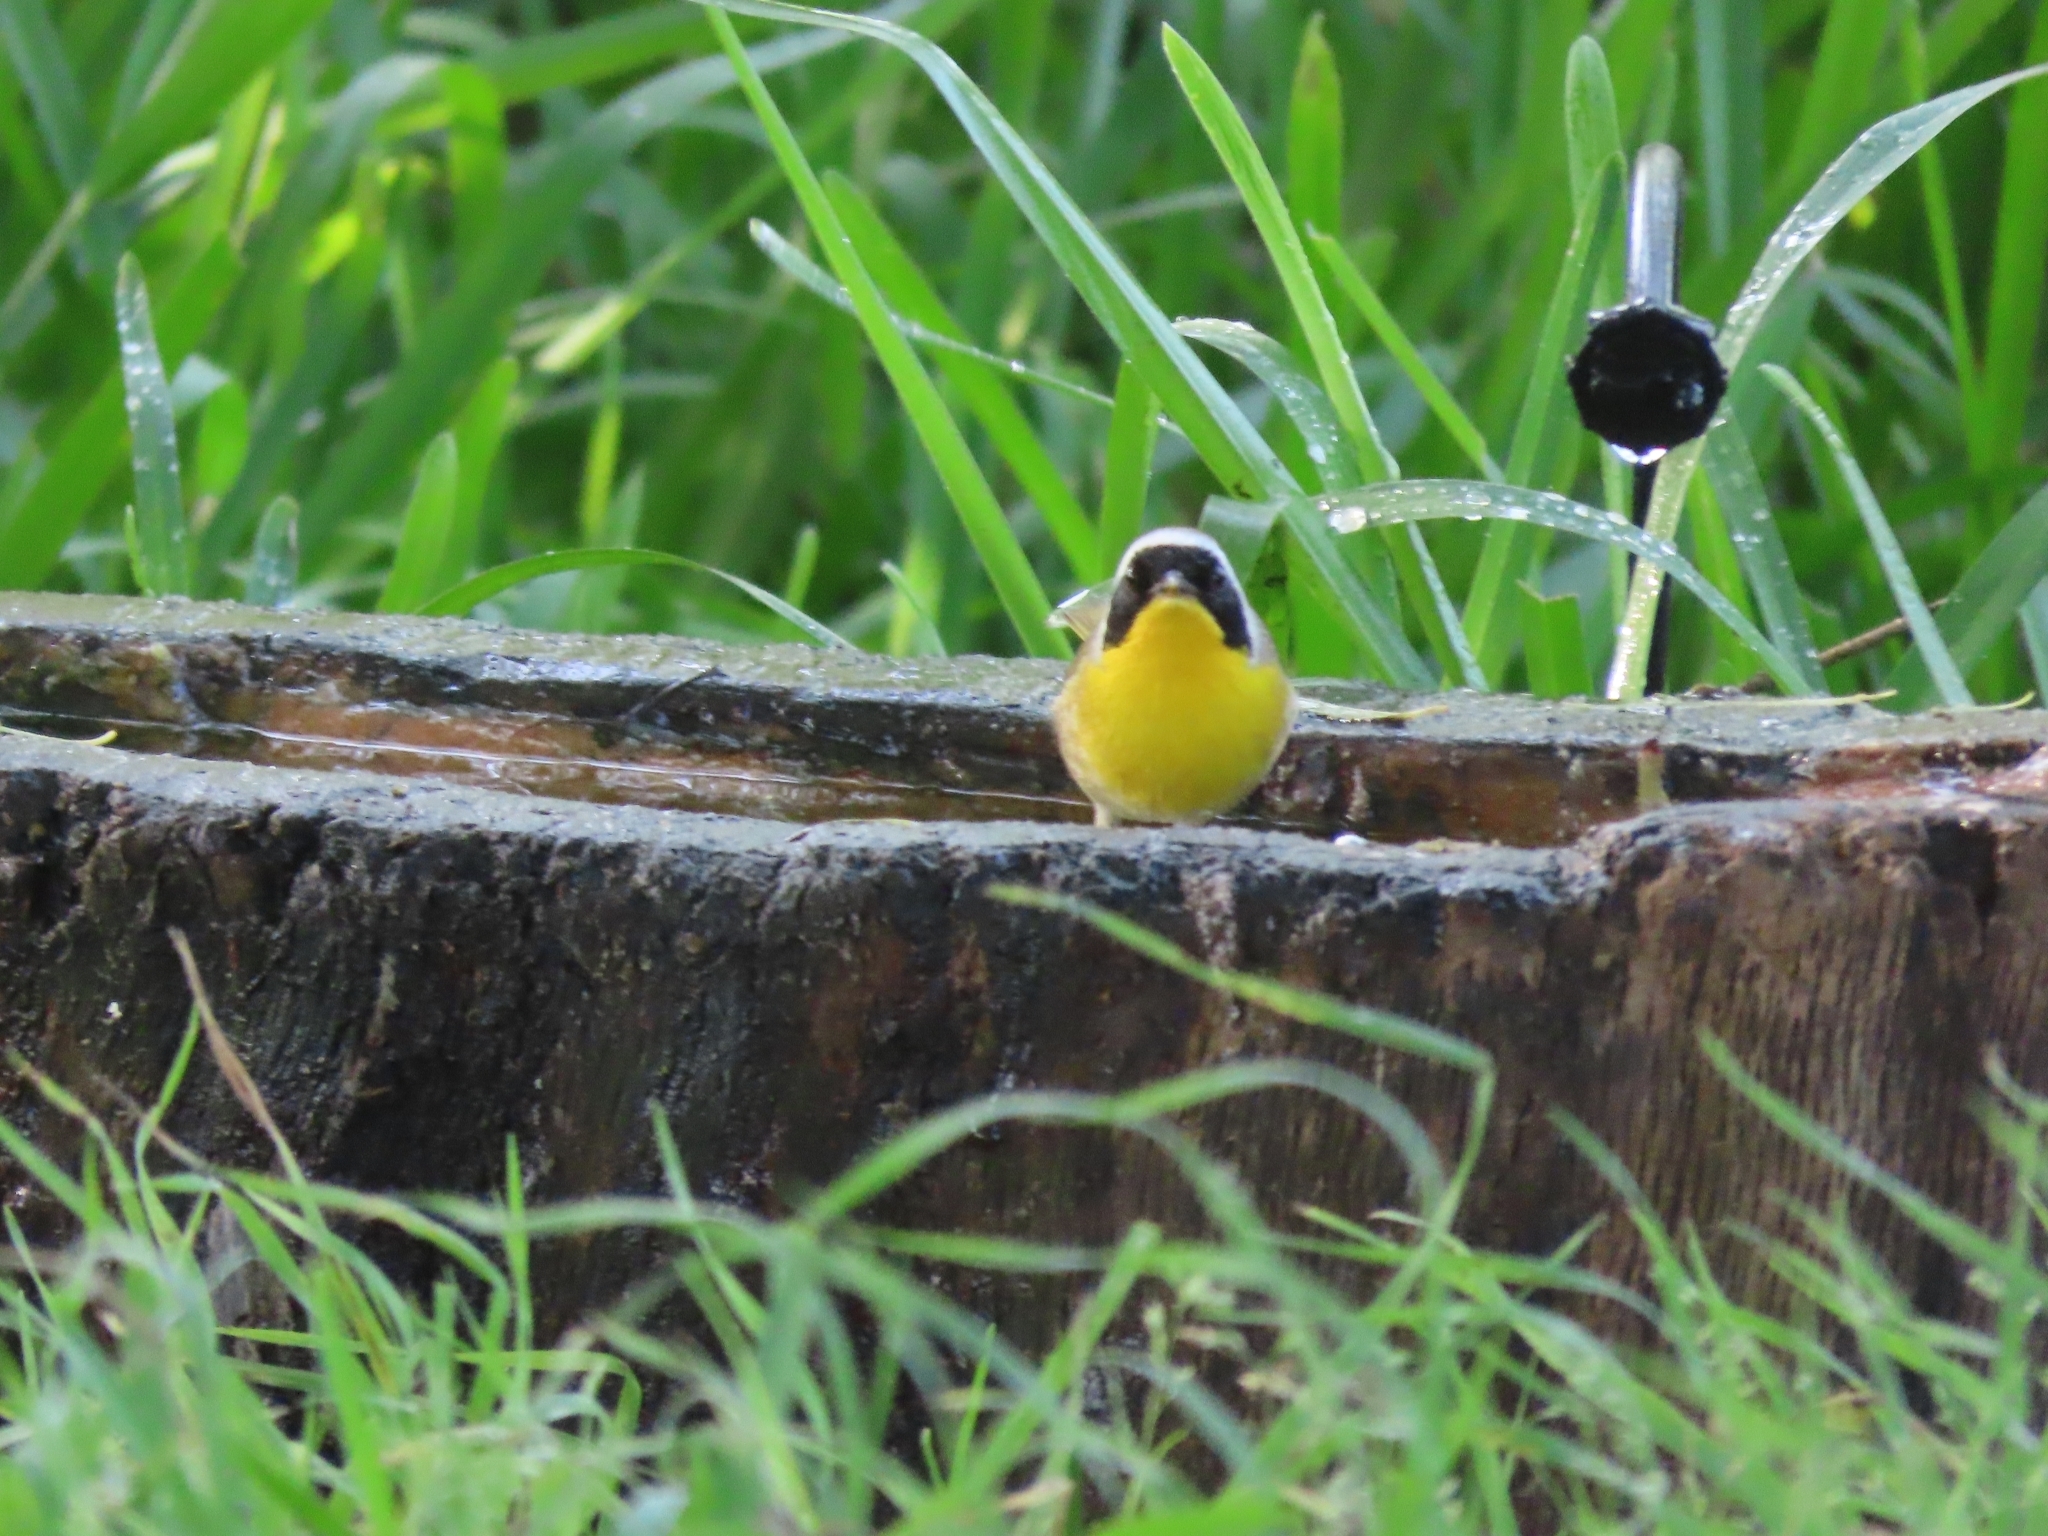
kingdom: Animalia
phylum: Chordata
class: Aves
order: Passeriformes
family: Parulidae
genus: Geothlypis
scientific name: Geothlypis trichas
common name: Common yellowthroat
